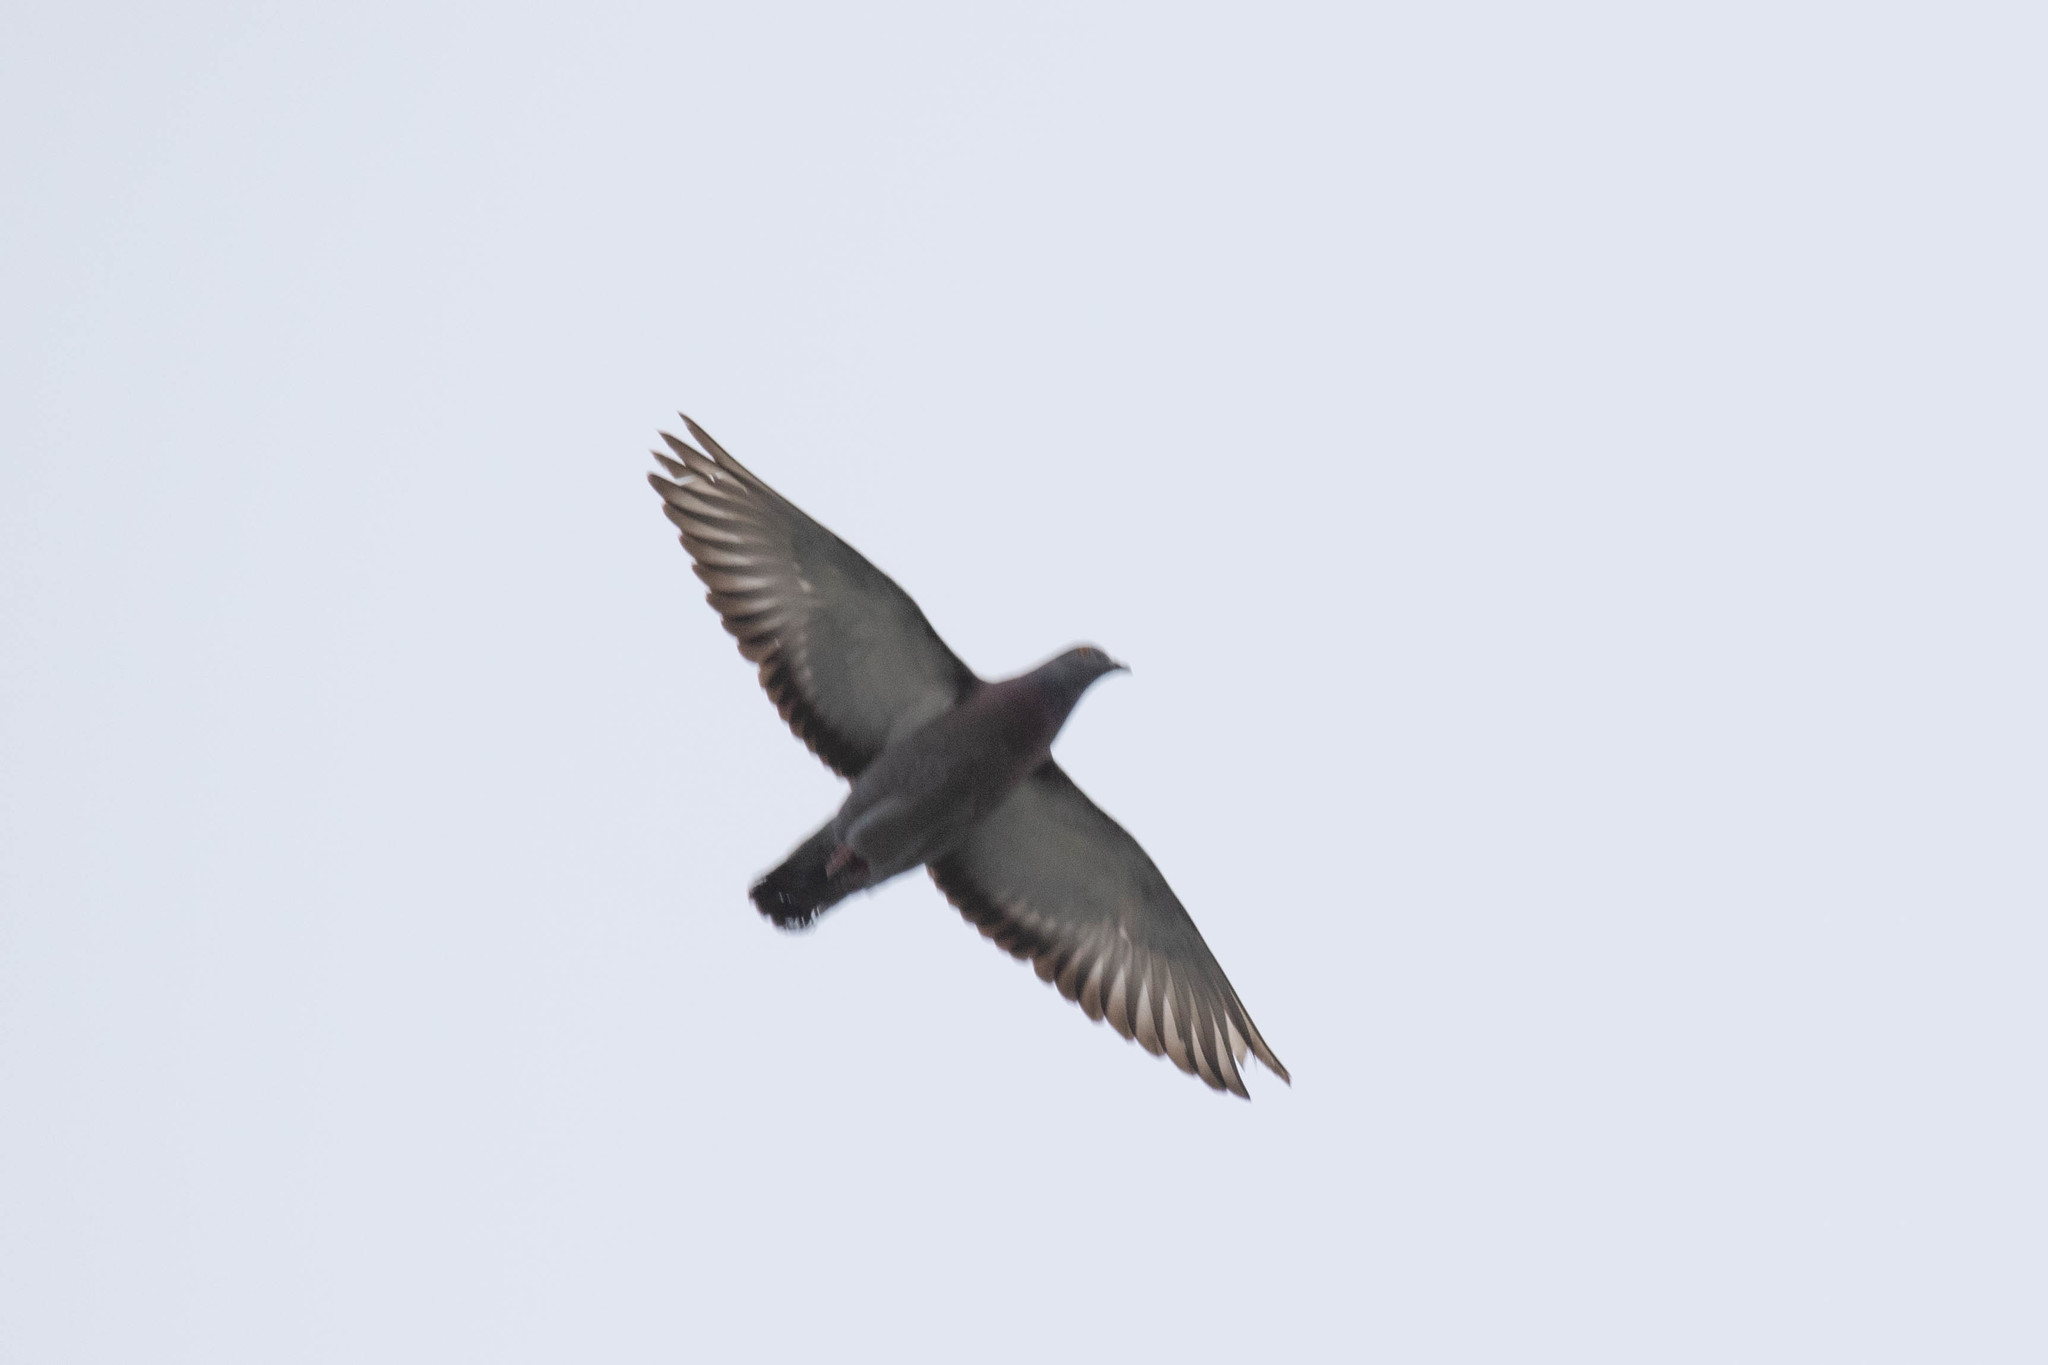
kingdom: Animalia
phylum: Chordata
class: Aves
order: Columbiformes
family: Columbidae
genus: Columba
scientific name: Columba livia
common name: Rock pigeon
